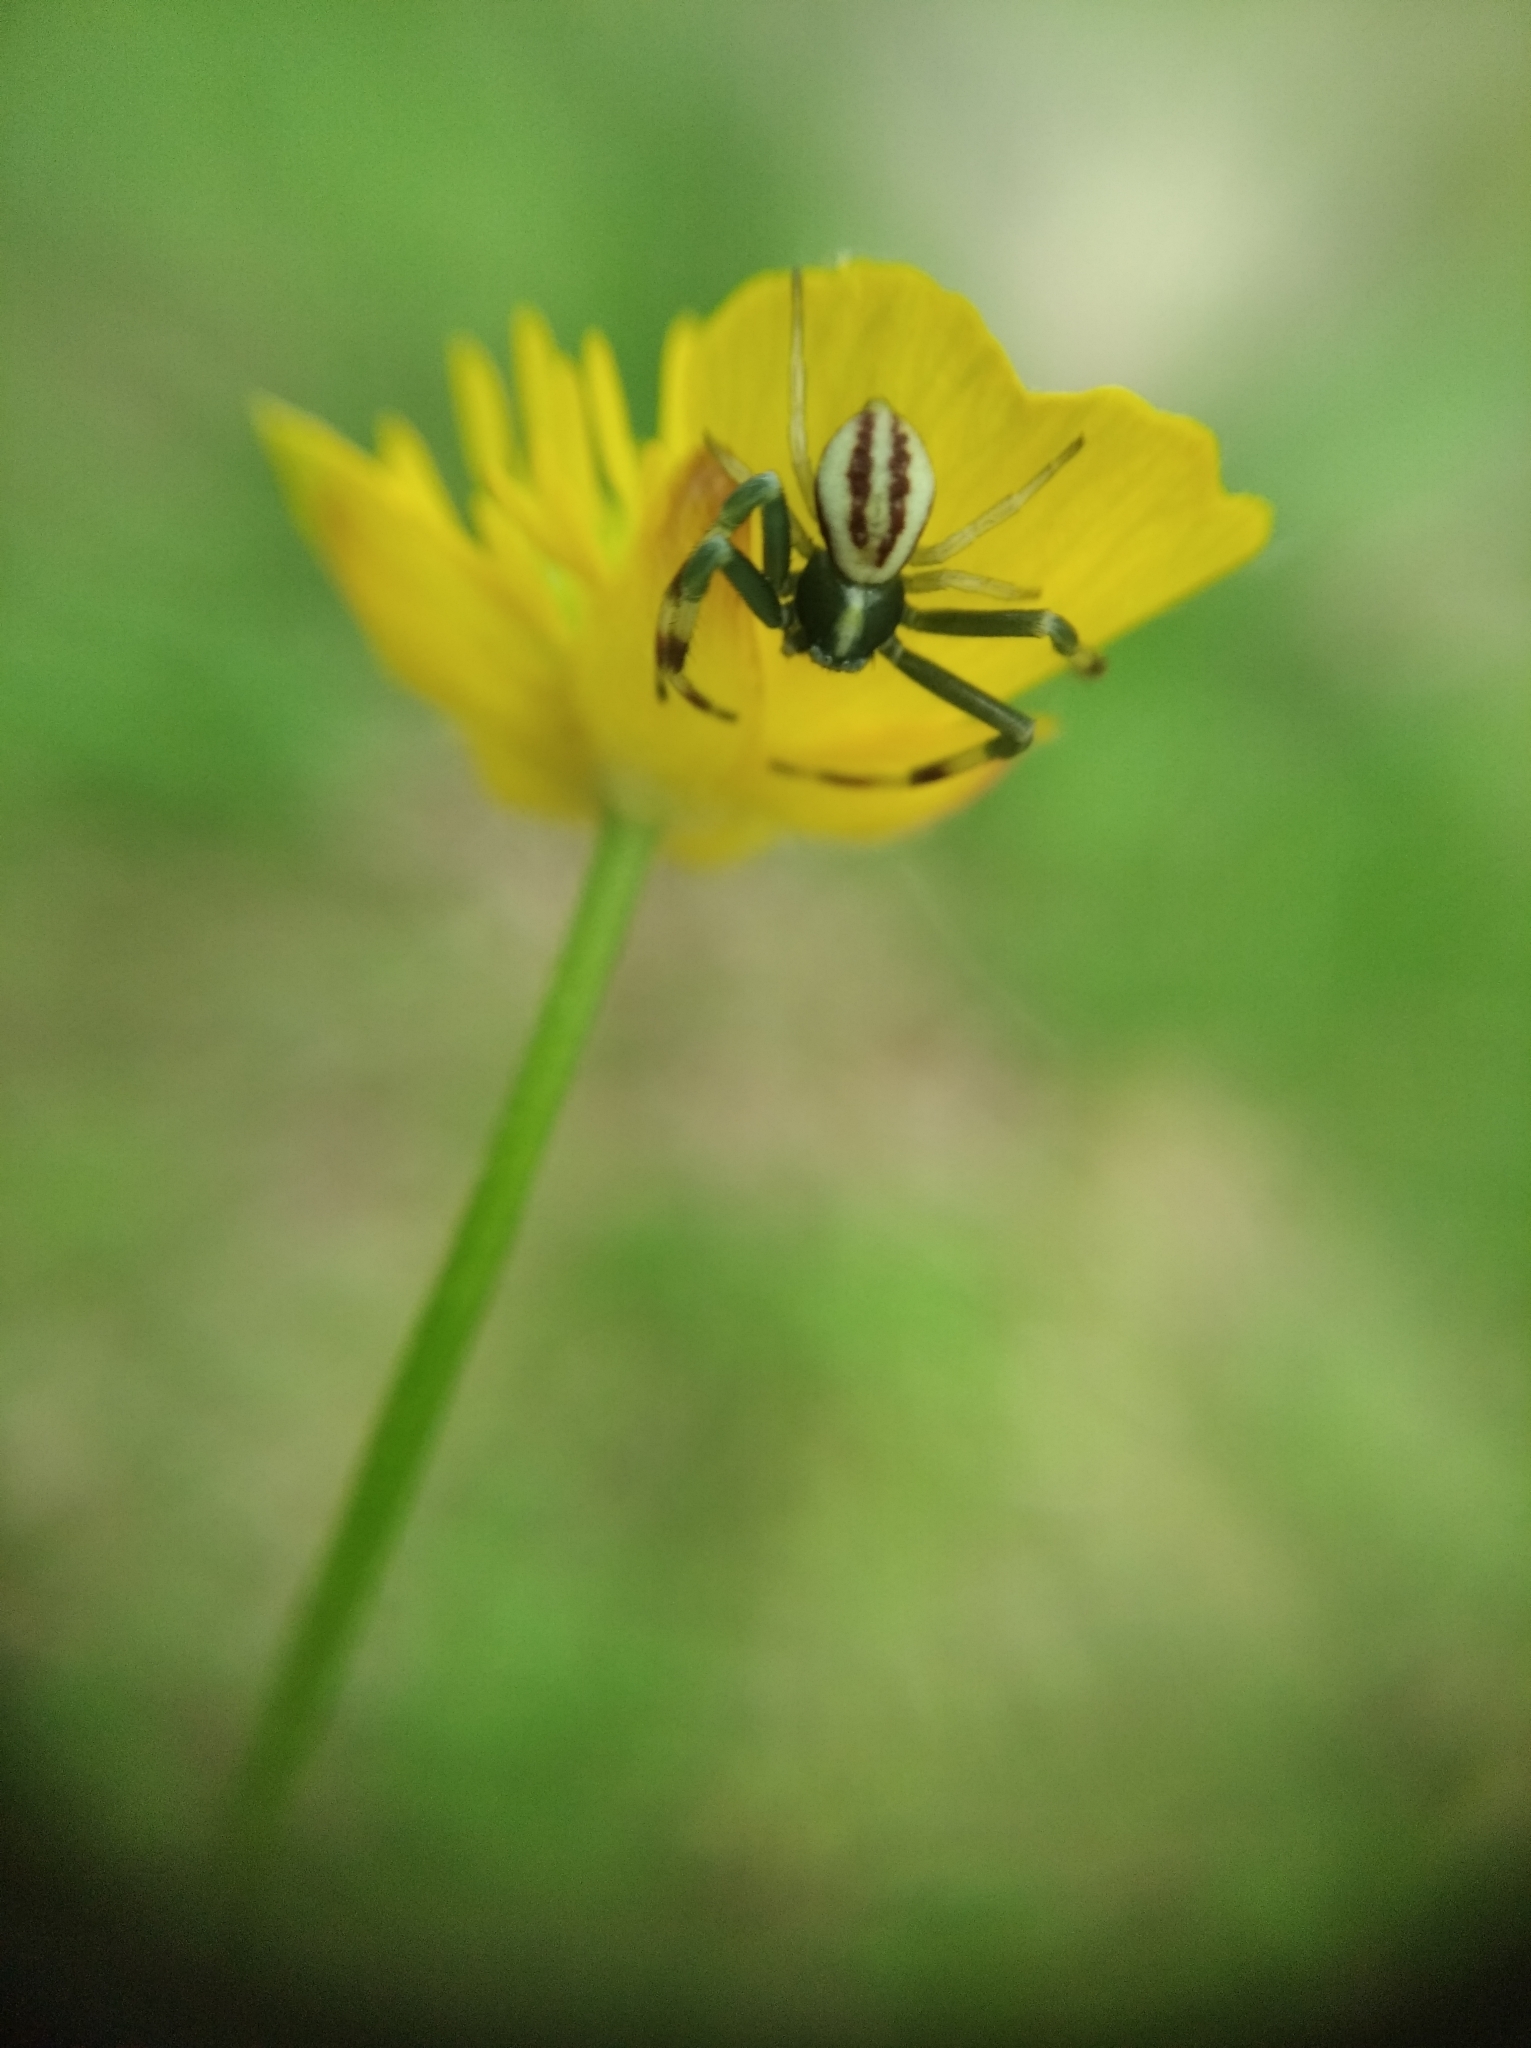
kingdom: Animalia
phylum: Arthropoda
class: Arachnida
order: Araneae
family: Thomisidae
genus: Misumena
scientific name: Misumena vatia
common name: Goldenrod crab spider
